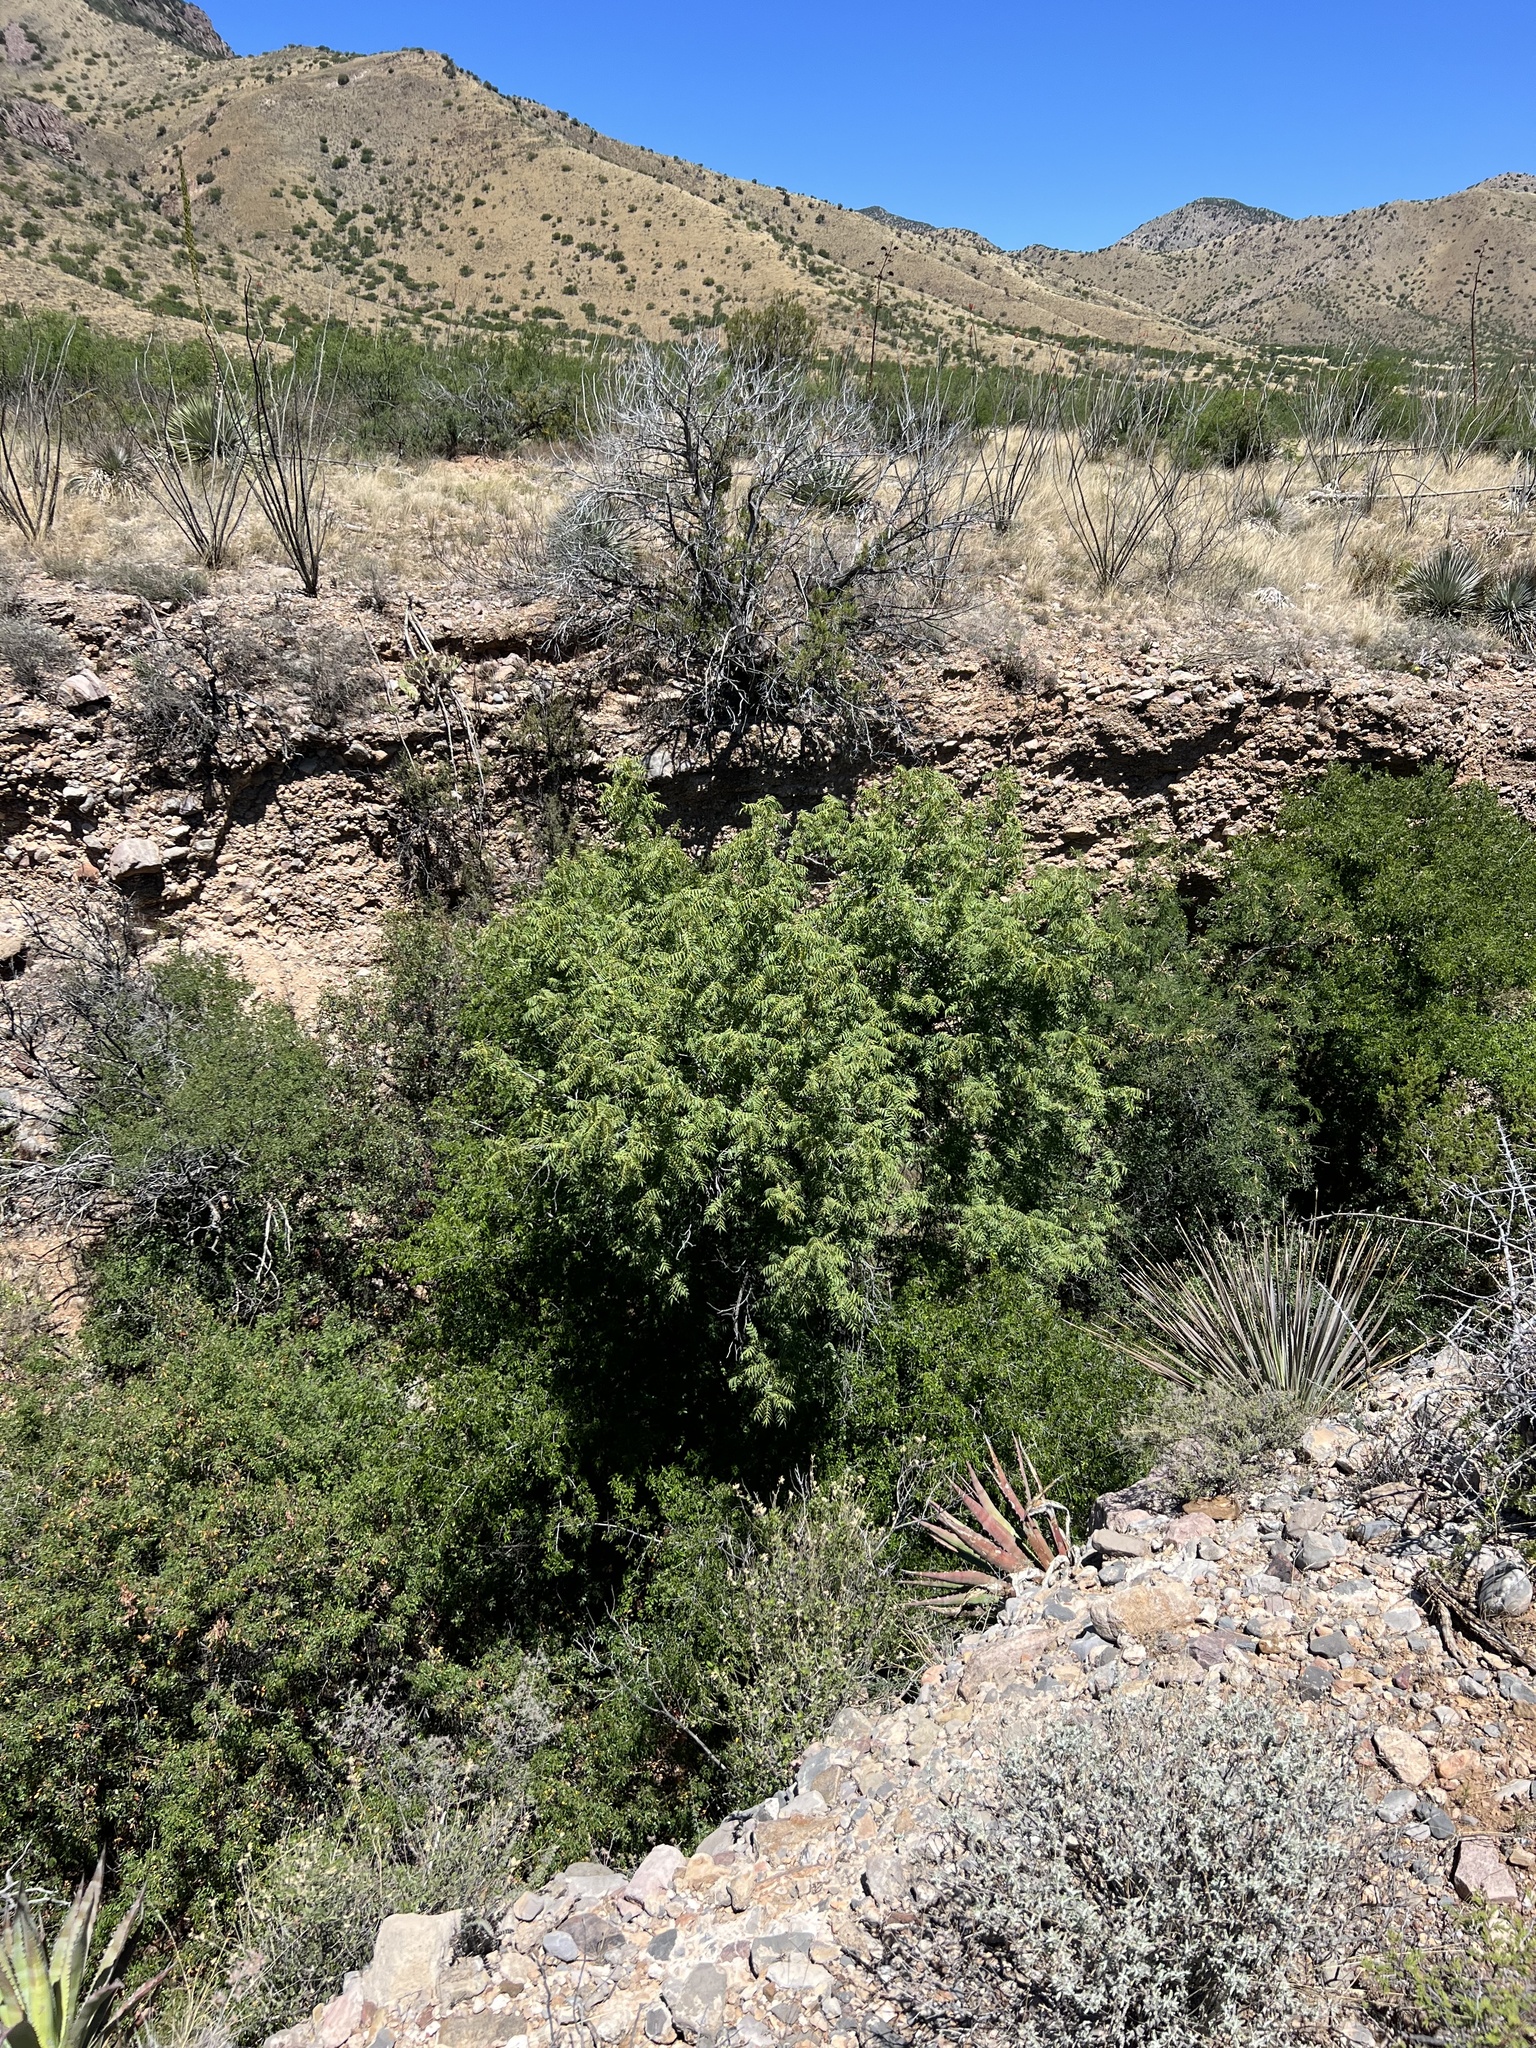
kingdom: Plantae
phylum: Tracheophyta
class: Magnoliopsida
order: Fagales
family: Juglandaceae
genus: Juglans
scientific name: Juglans major
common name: Arizona walnut
